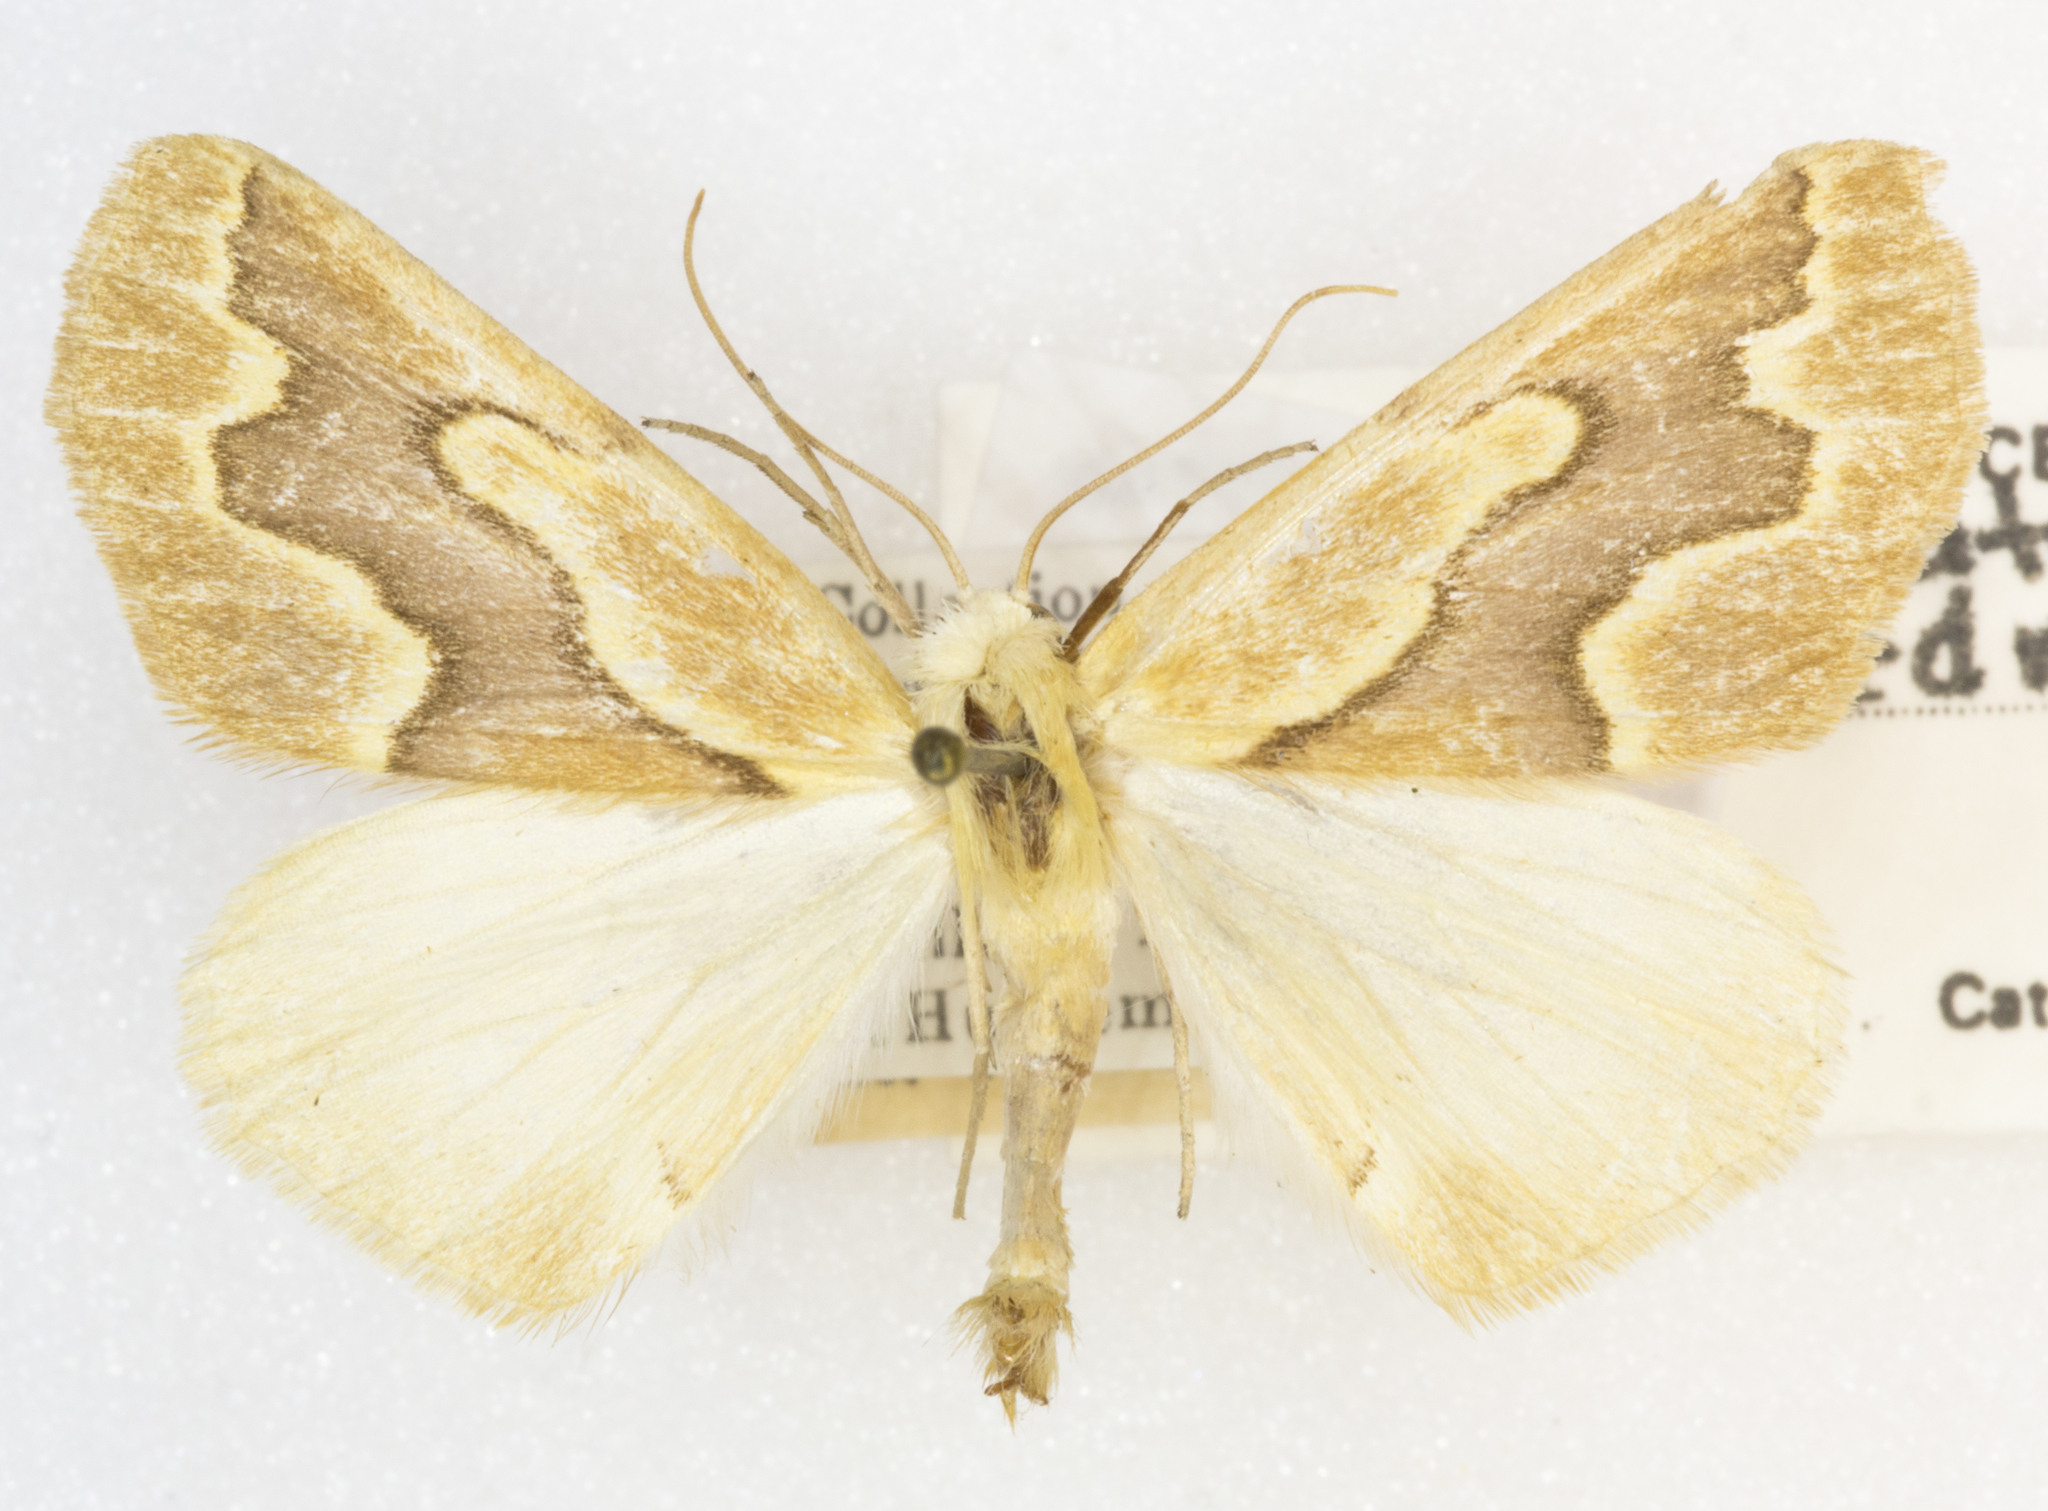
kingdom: Animalia
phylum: Arthropoda
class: Insecta
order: Lepidoptera
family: Geometridae
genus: Sabulodes
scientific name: Sabulodes edwardsata
